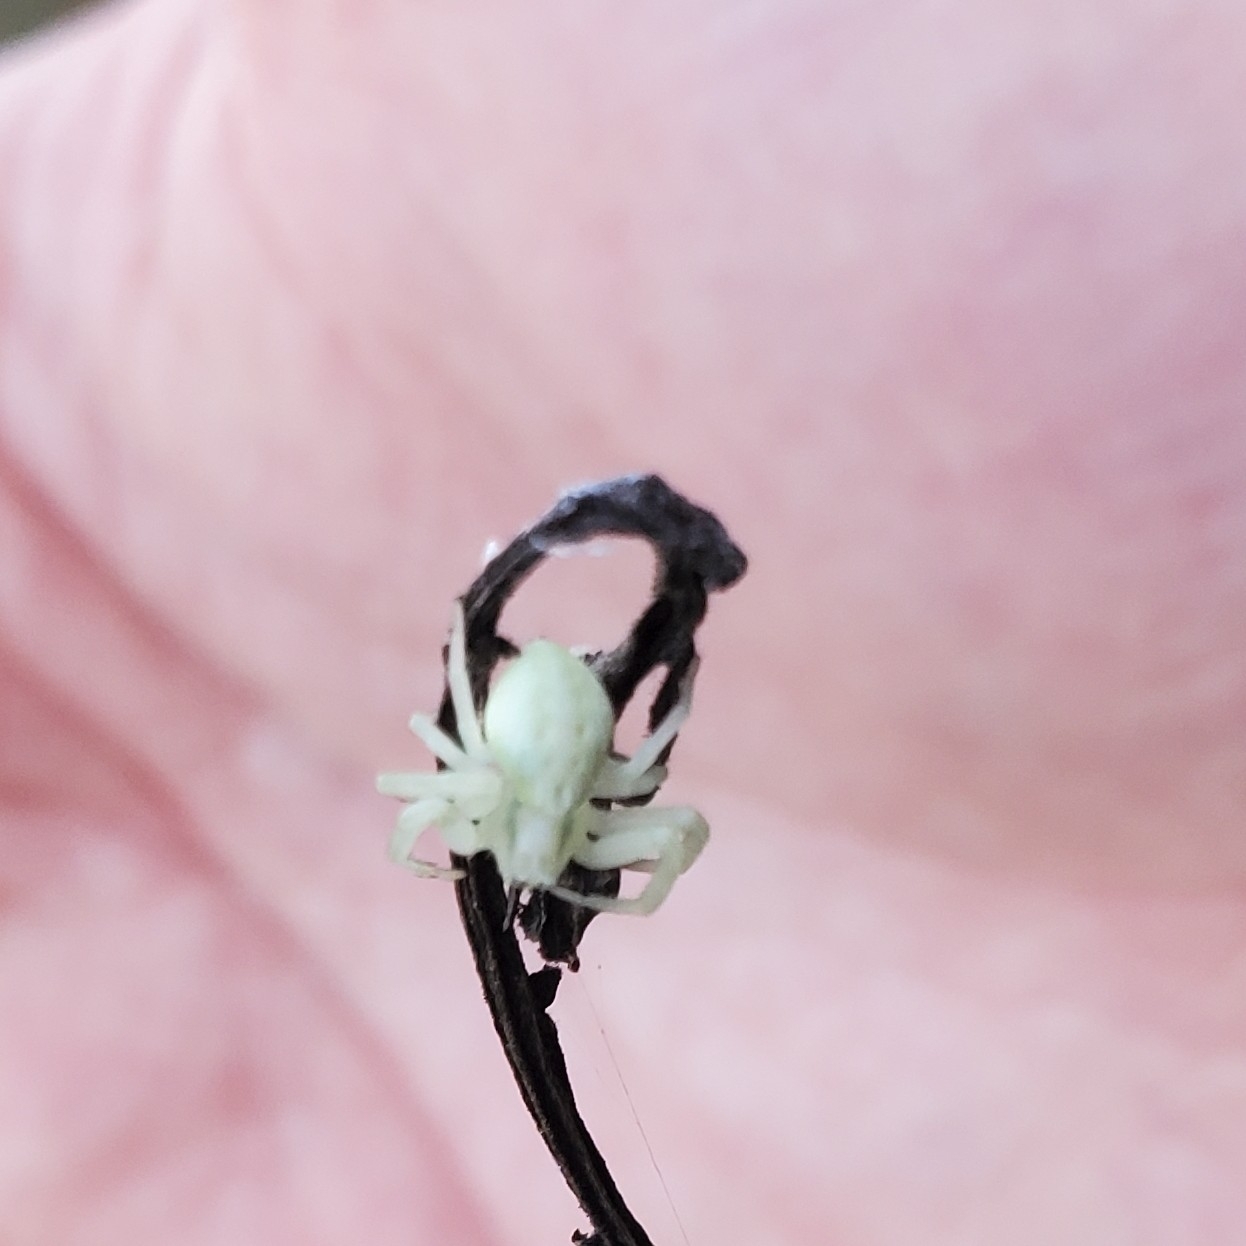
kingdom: Animalia
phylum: Arthropoda
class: Arachnida
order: Araneae
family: Thomisidae
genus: Misumena
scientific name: Misumena vatia
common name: Goldenrod crab spider
